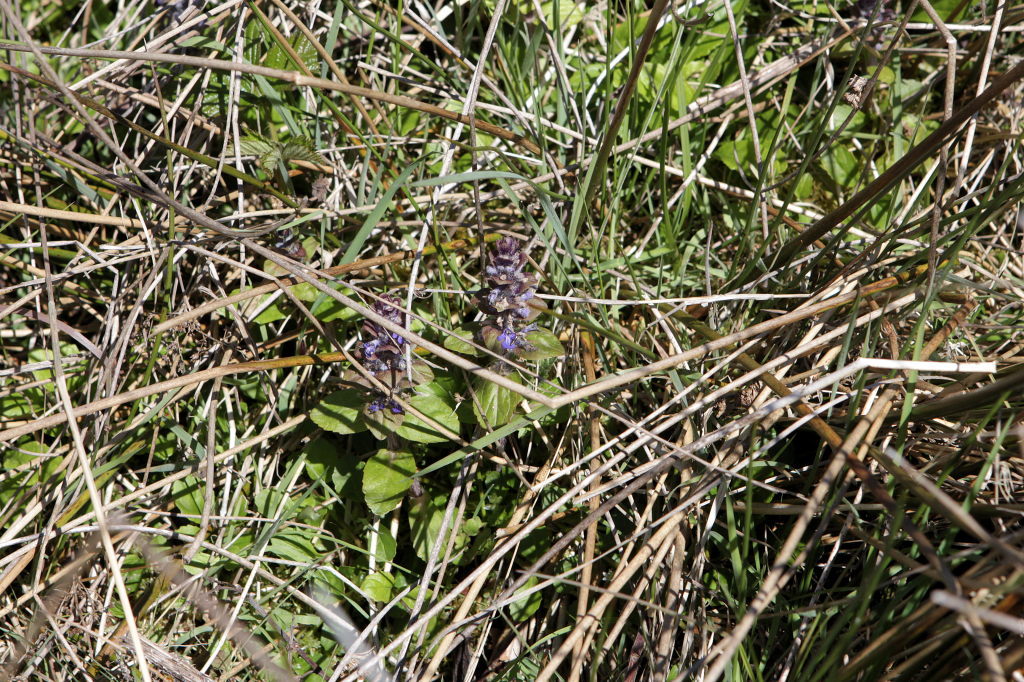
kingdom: Plantae
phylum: Tracheophyta
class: Magnoliopsida
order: Lamiales
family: Lamiaceae
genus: Ajuga
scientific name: Ajuga reptans
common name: Bugle
